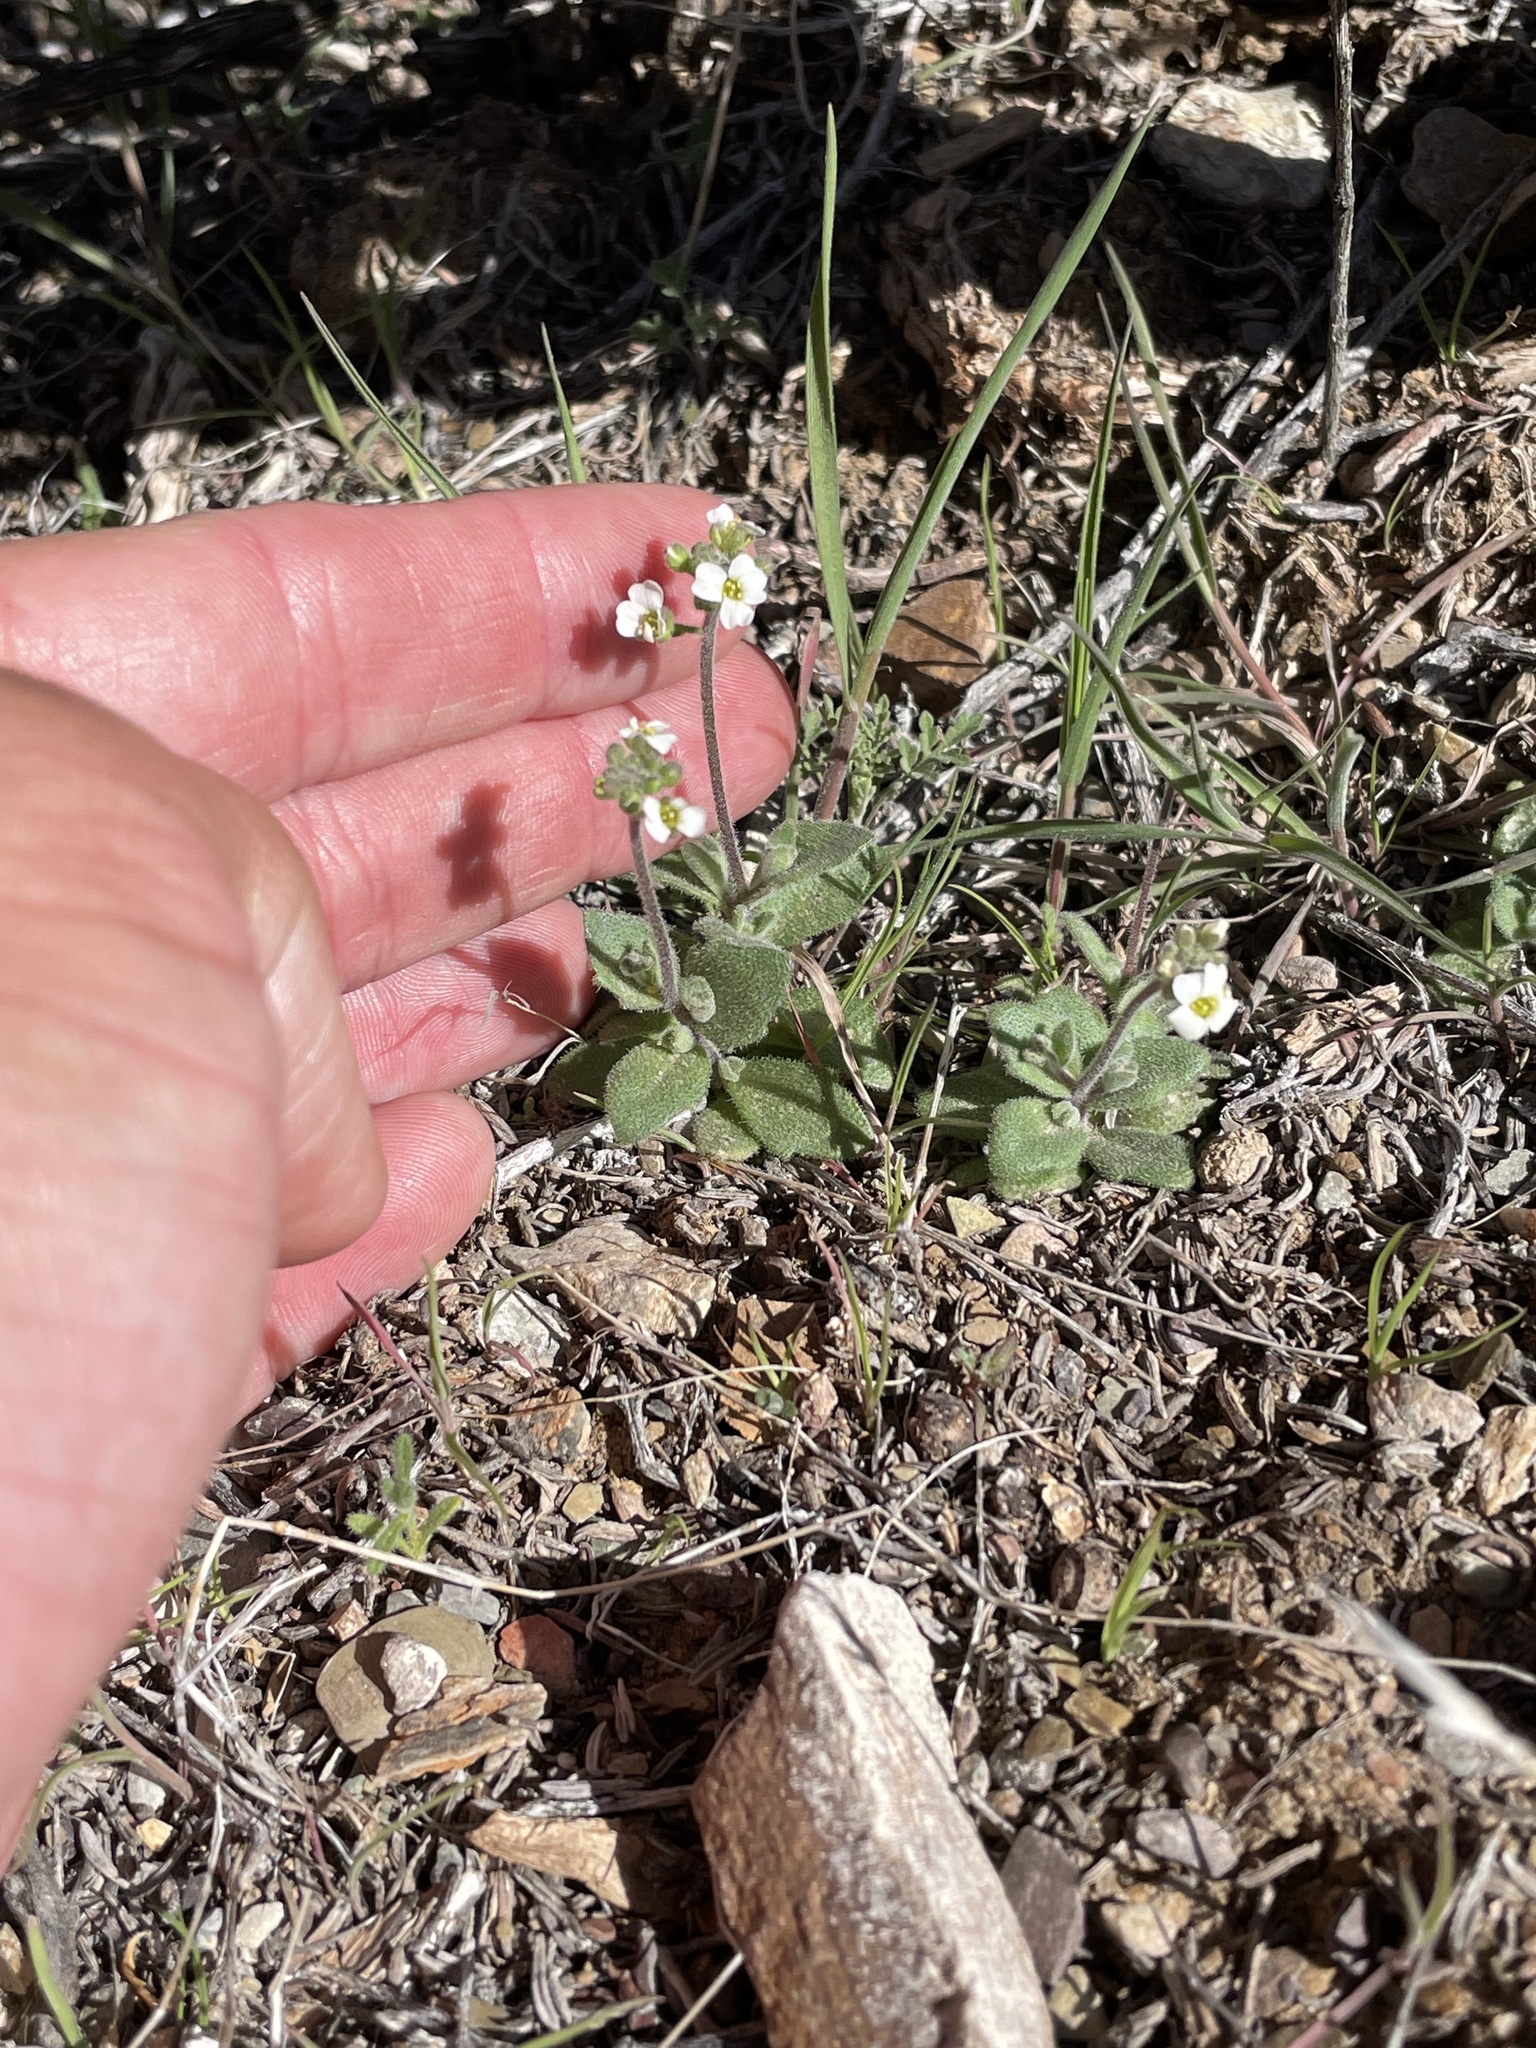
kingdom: Plantae
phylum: Tracheophyta
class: Magnoliopsida
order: Brassicales
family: Brassicaceae
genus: Tomostima
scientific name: Tomostima cuneifolia
